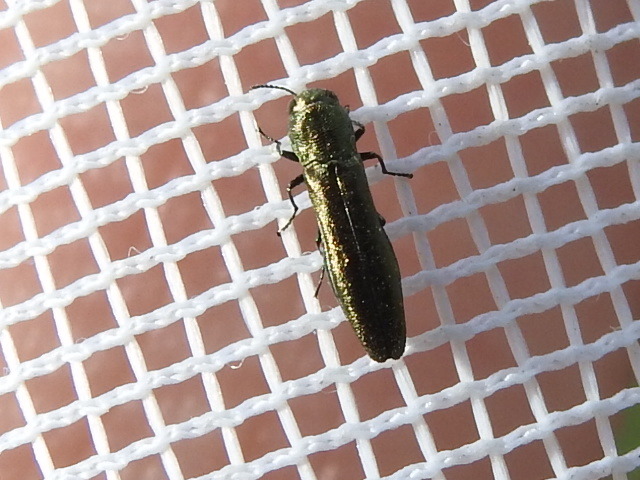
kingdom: Animalia
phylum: Arthropoda
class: Insecta
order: Coleoptera
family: Buprestidae
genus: Agrilus
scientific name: Agrilus lacustris
